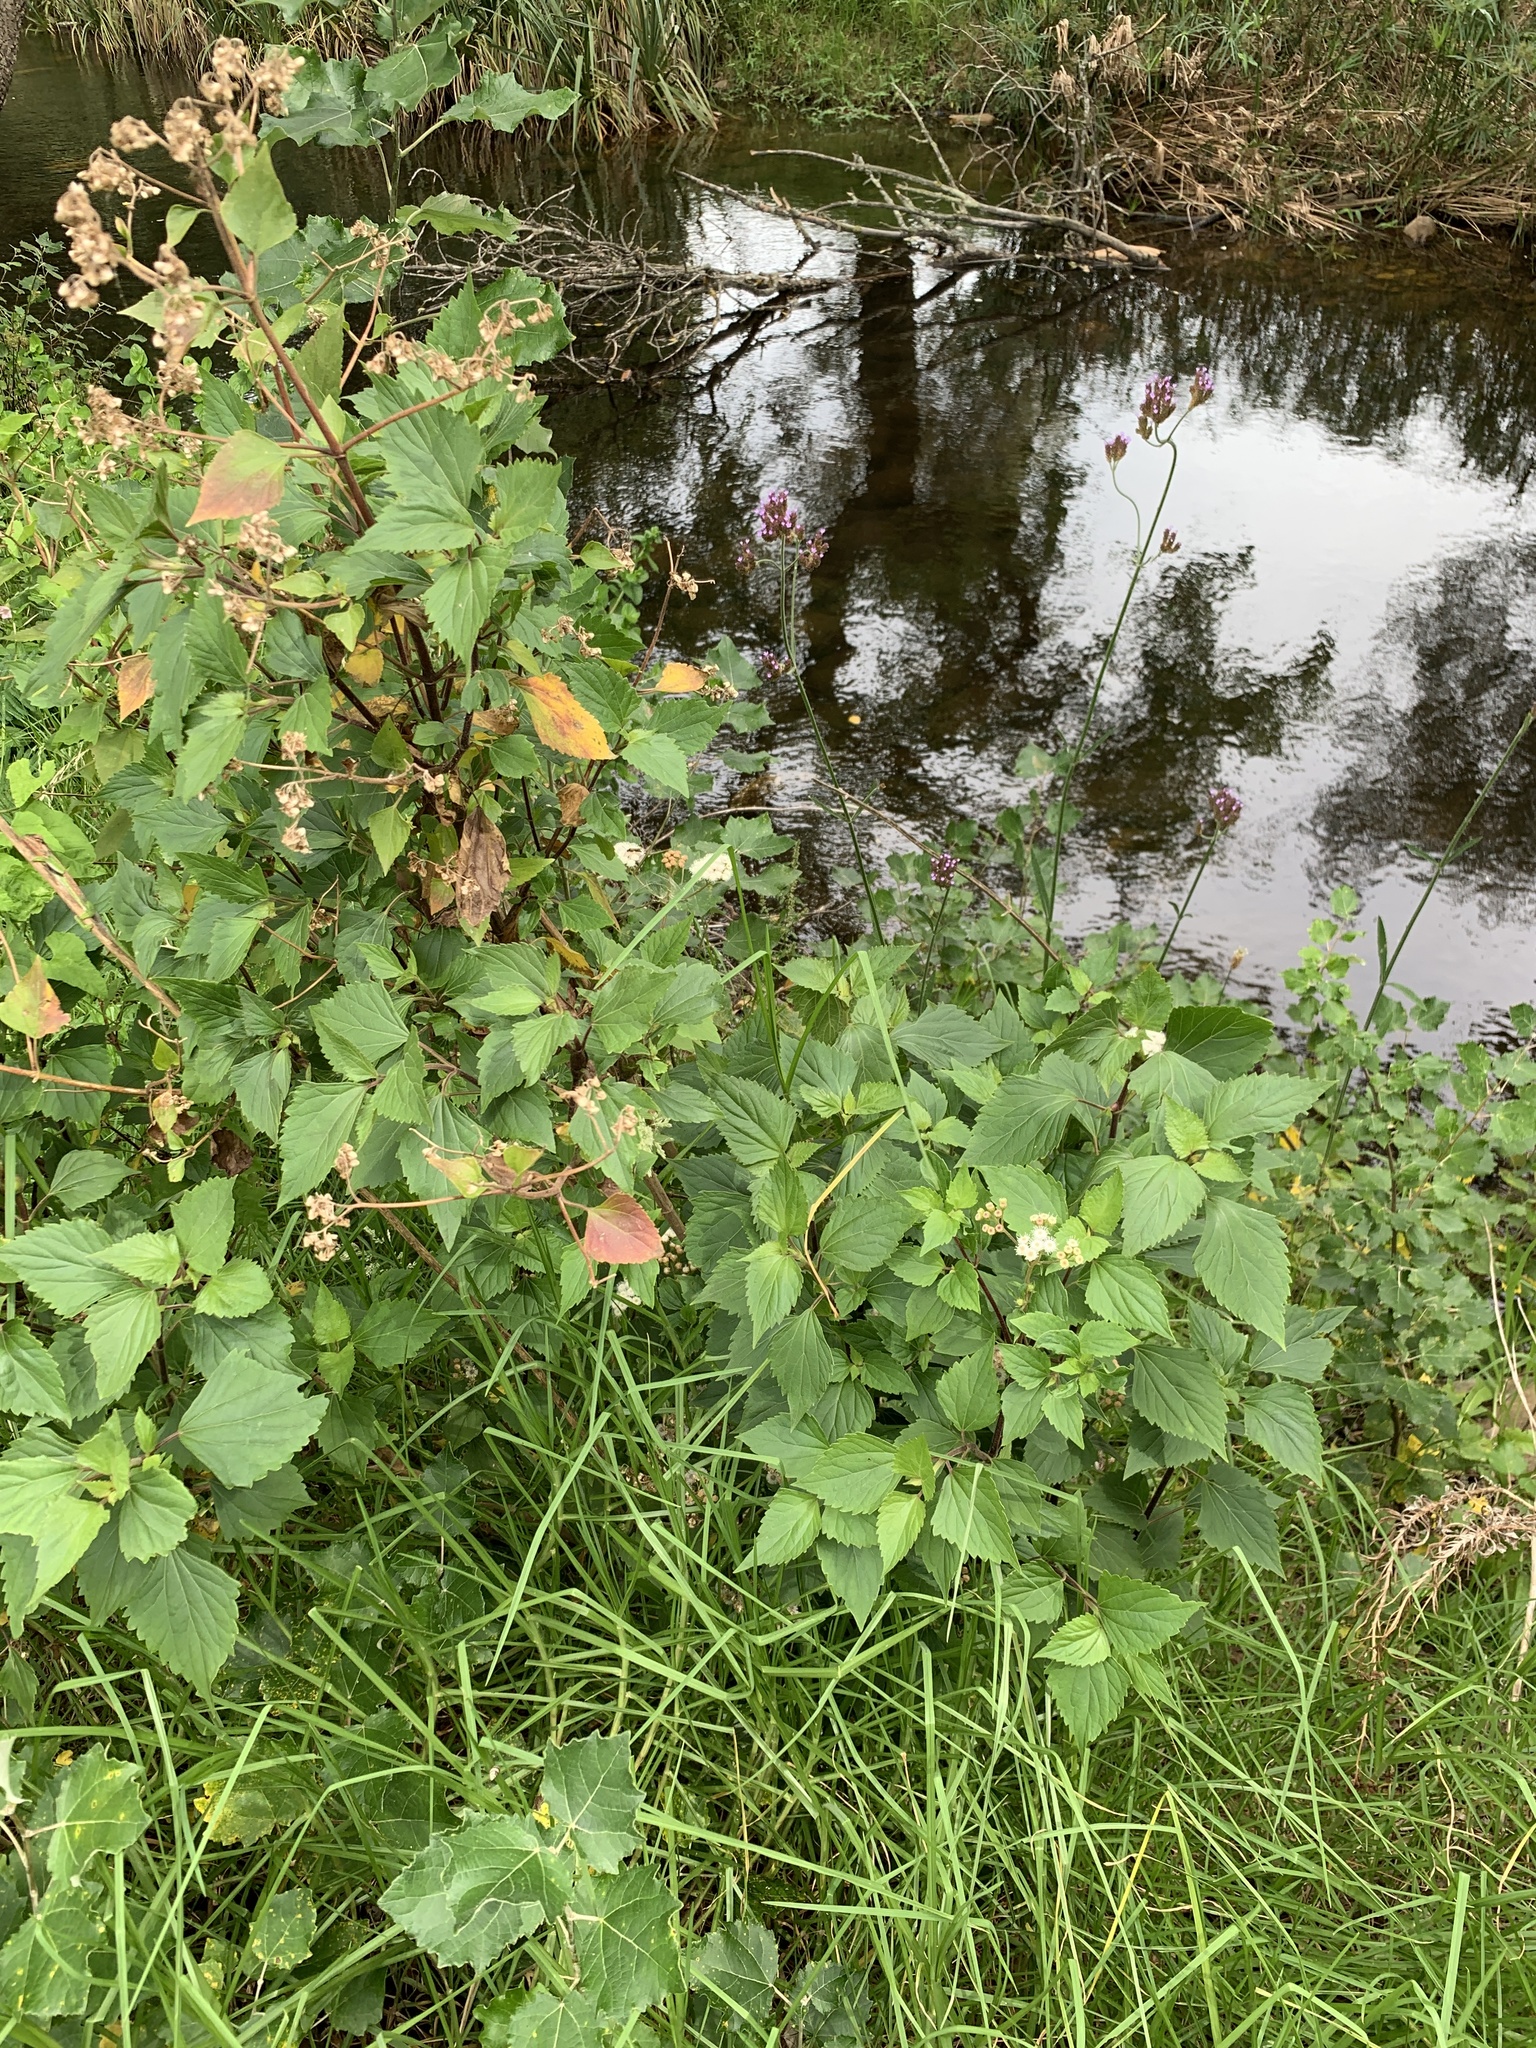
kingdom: Plantae
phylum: Tracheophyta
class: Magnoliopsida
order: Asterales
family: Asteraceae
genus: Ageratina
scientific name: Ageratina adenophora
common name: Sticky snakeroot
